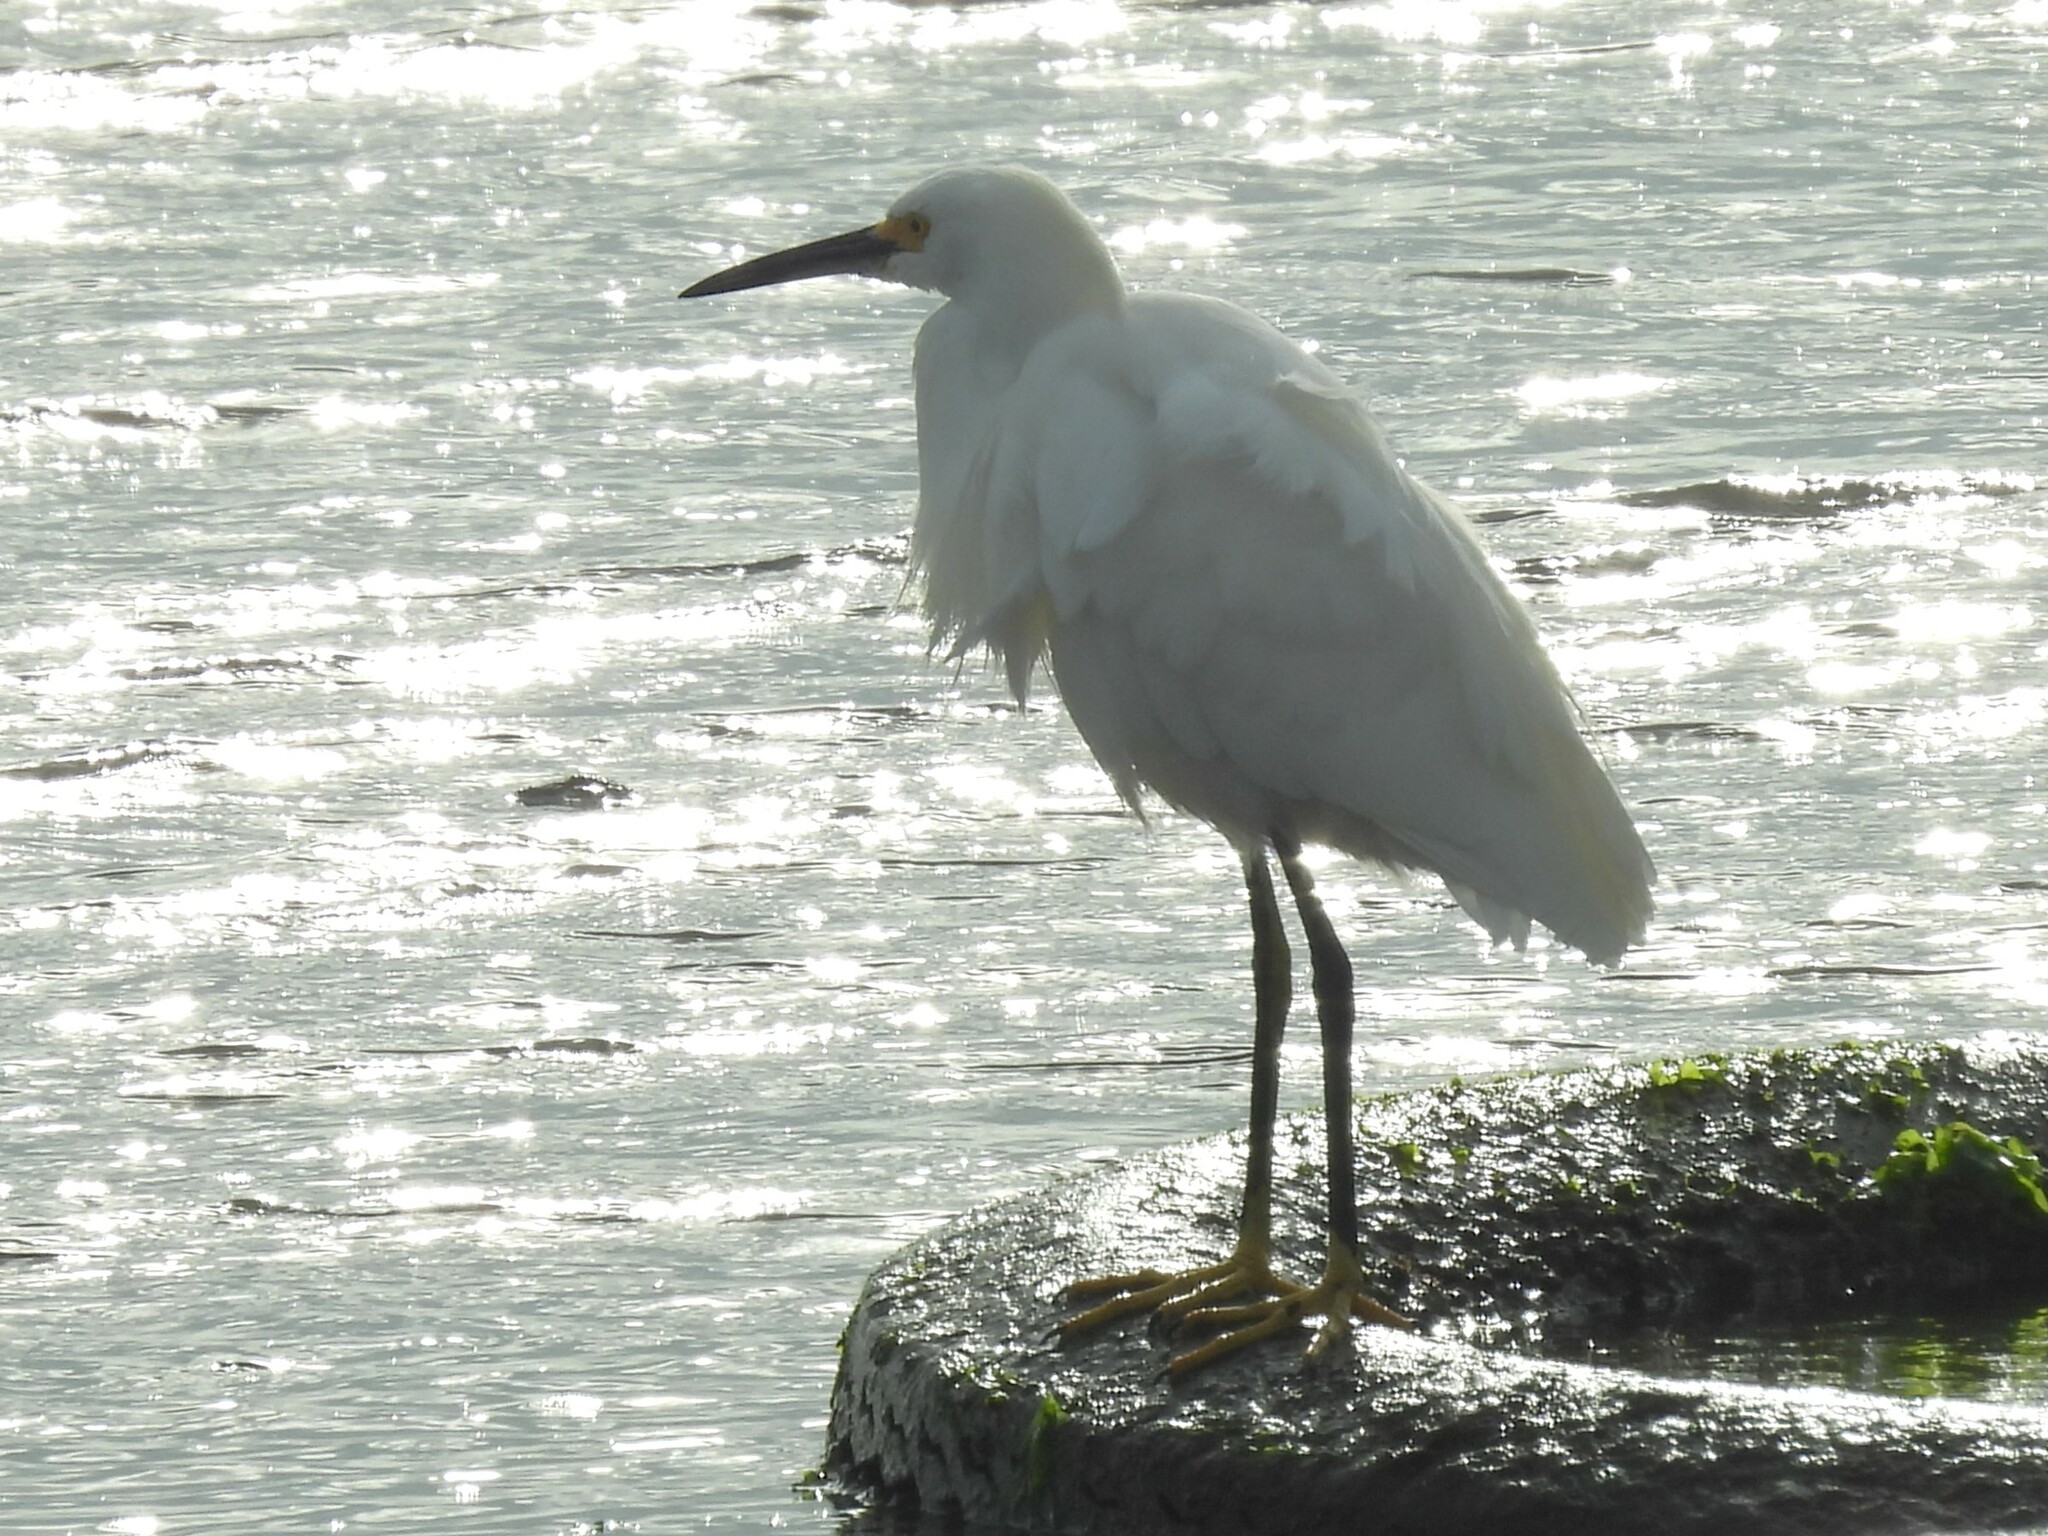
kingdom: Animalia
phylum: Chordata
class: Aves
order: Pelecaniformes
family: Ardeidae
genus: Egretta
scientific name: Egretta thula
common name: Snowy egret
